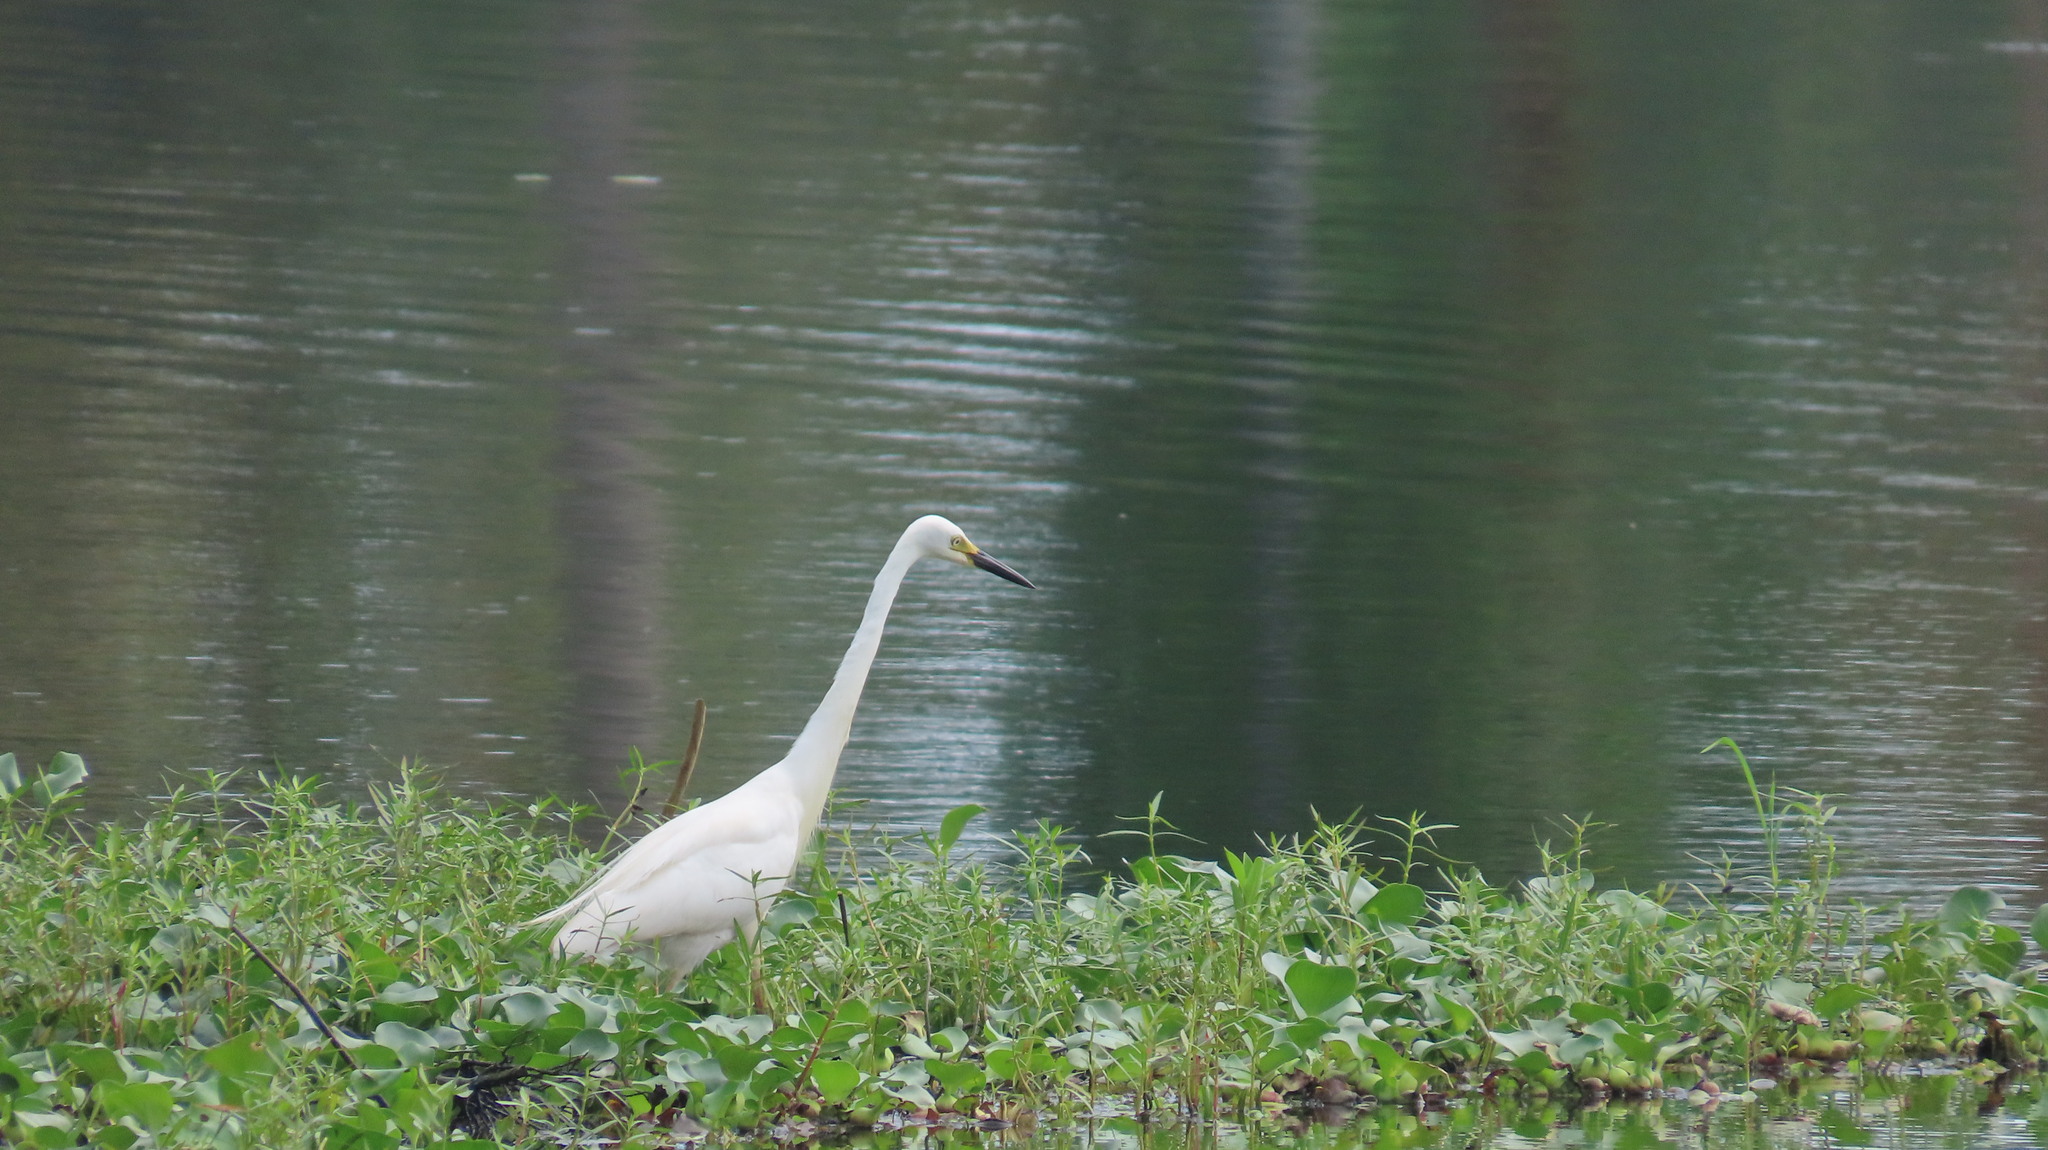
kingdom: Animalia
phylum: Chordata
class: Aves
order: Pelecaniformes
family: Ardeidae
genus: Egretta
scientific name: Egretta intermedia
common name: Intermediate egret
